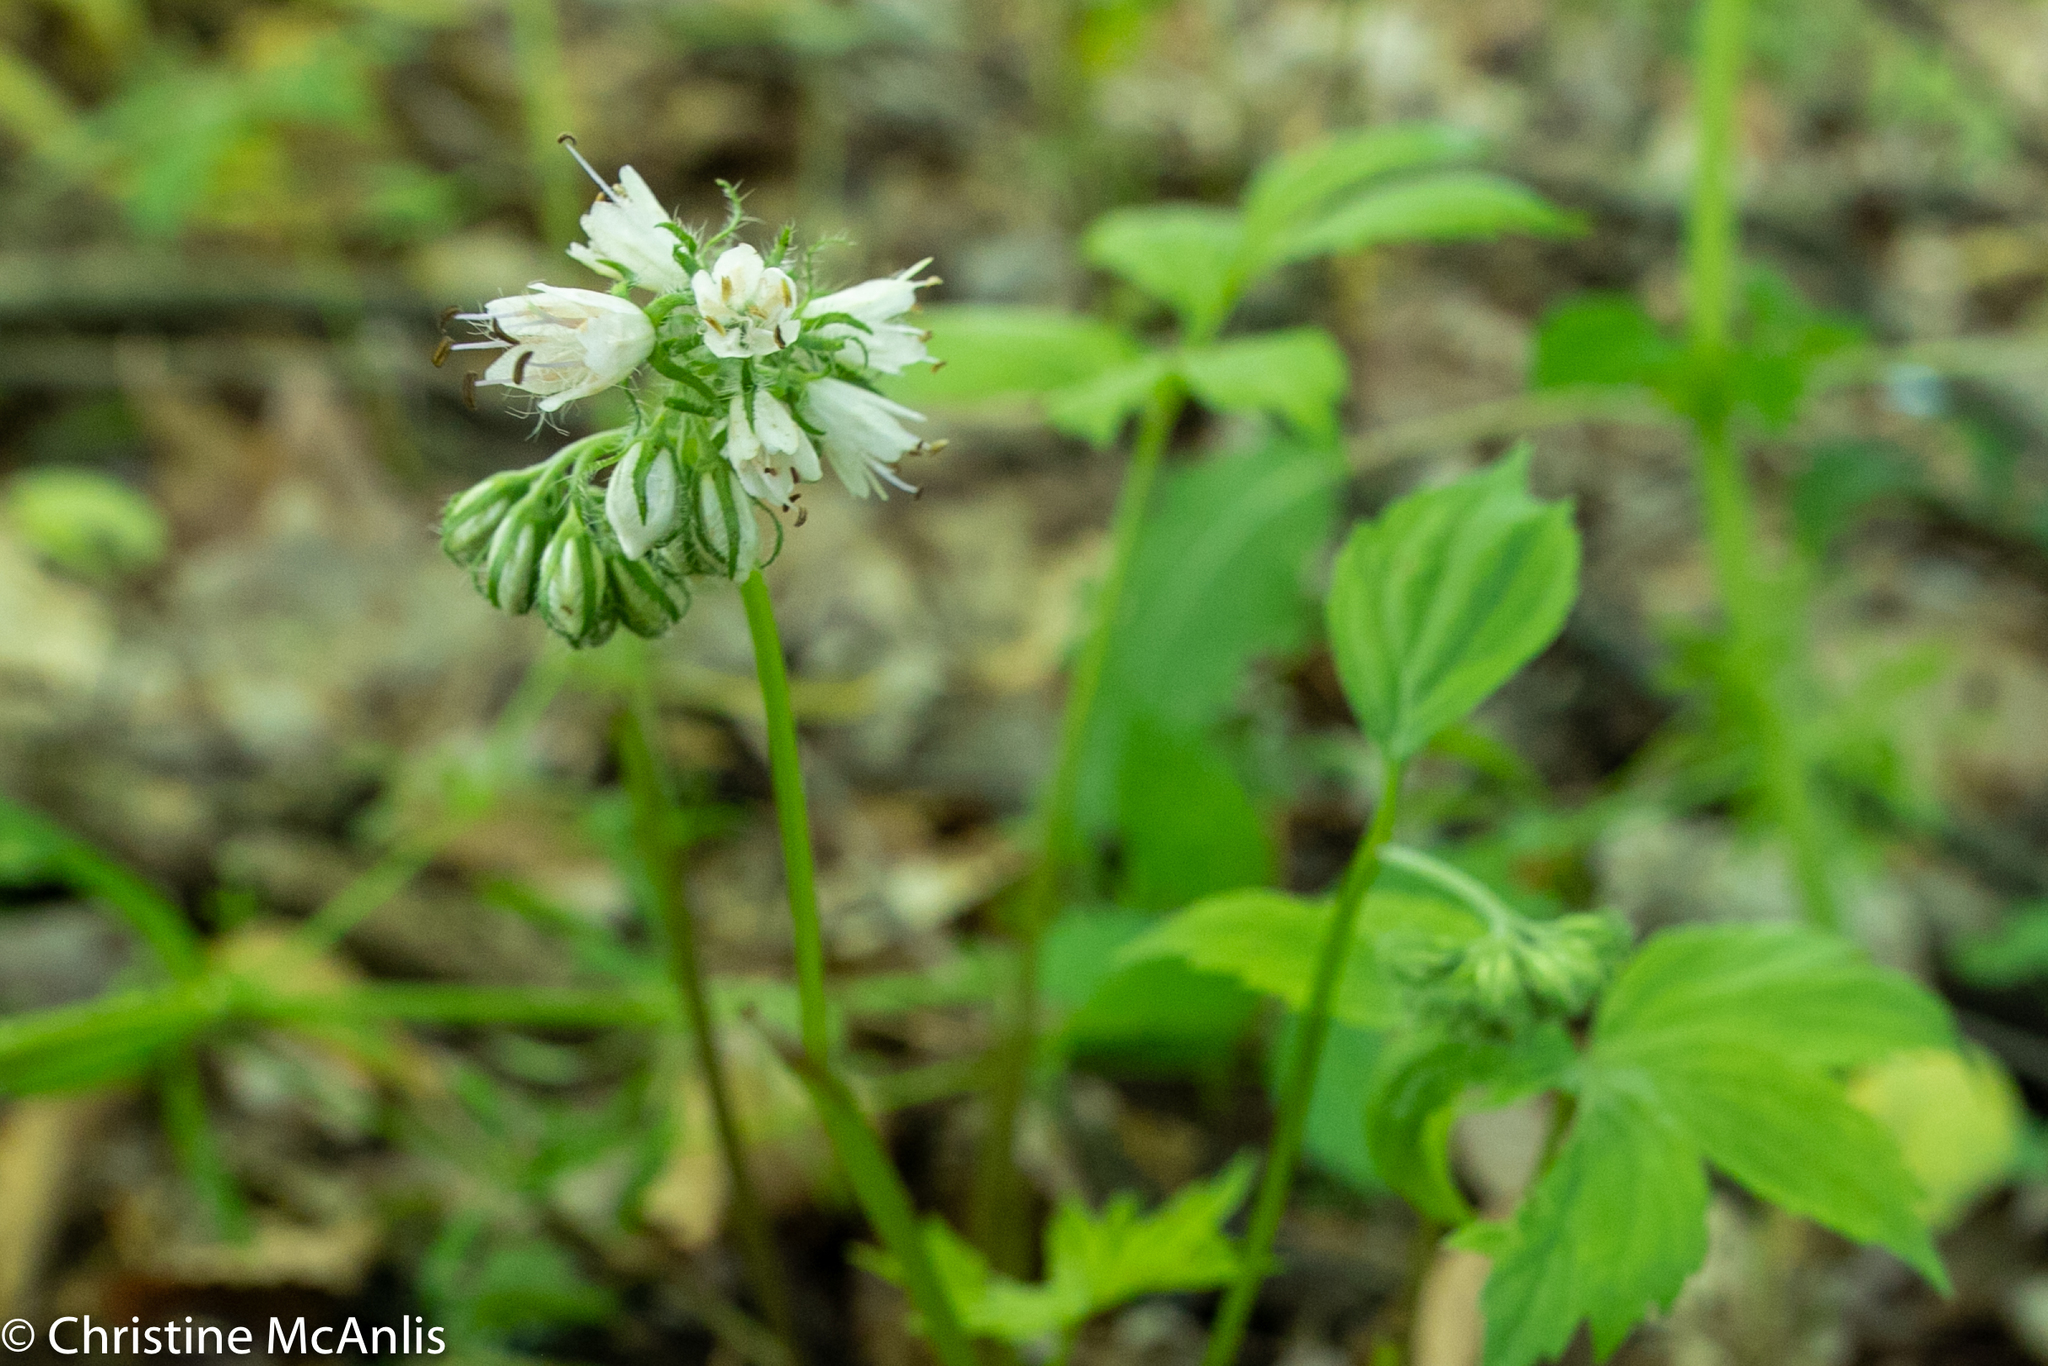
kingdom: Plantae
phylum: Tracheophyta
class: Magnoliopsida
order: Boraginales
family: Hydrophyllaceae
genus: Hydrophyllum
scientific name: Hydrophyllum virginianum
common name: Virginia waterleaf
